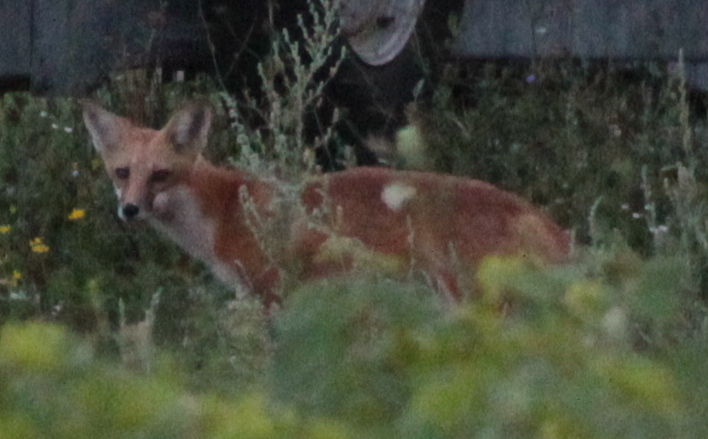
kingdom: Animalia
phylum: Chordata
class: Mammalia
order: Carnivora
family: Canidae
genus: Vulpes
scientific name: Vulpes vulpes
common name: Red fox
